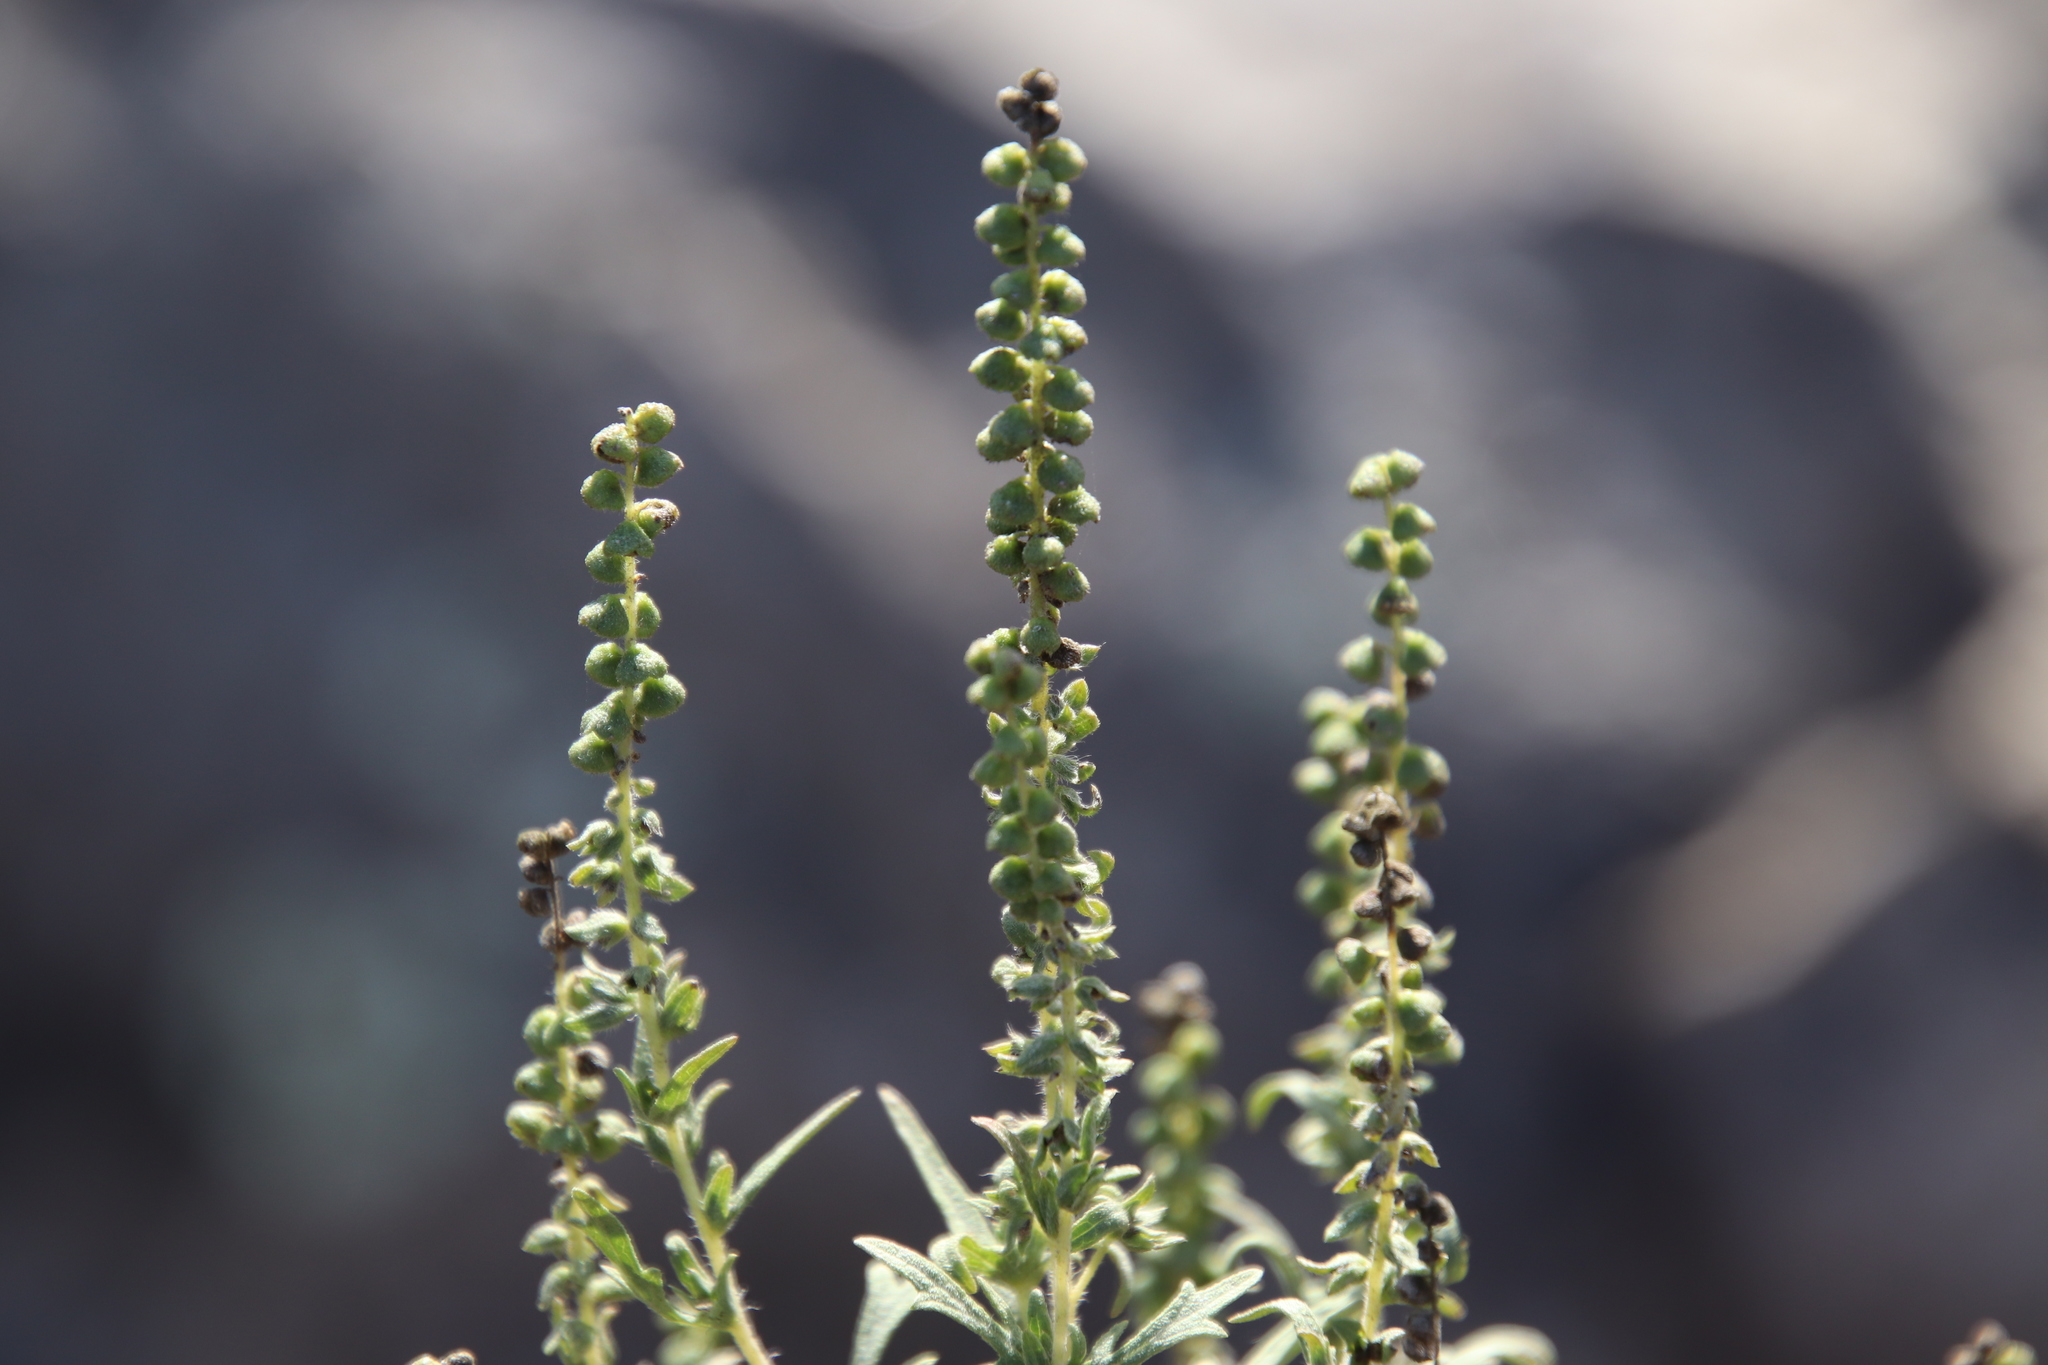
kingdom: Plantae
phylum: Tracheophyta
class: Magnoliopsida
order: Asterales
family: Asteraceae
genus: Ambrosia
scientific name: Ambrosia psilostachya
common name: Perennial ragweed
